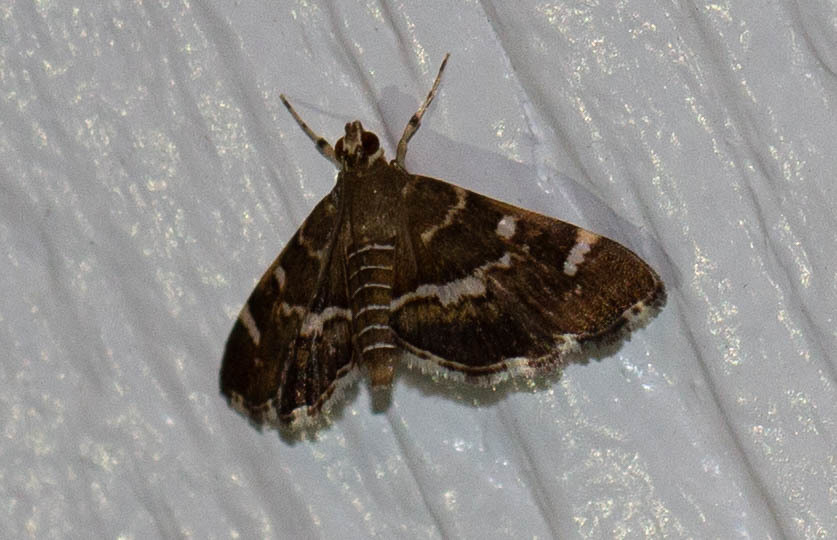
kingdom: Animalia
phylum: Arthropoda
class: Insecta
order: Lepidoptera
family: Crambidae
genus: Hymenia
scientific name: Hymenia perspectalis
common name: Spotted beet webworm
